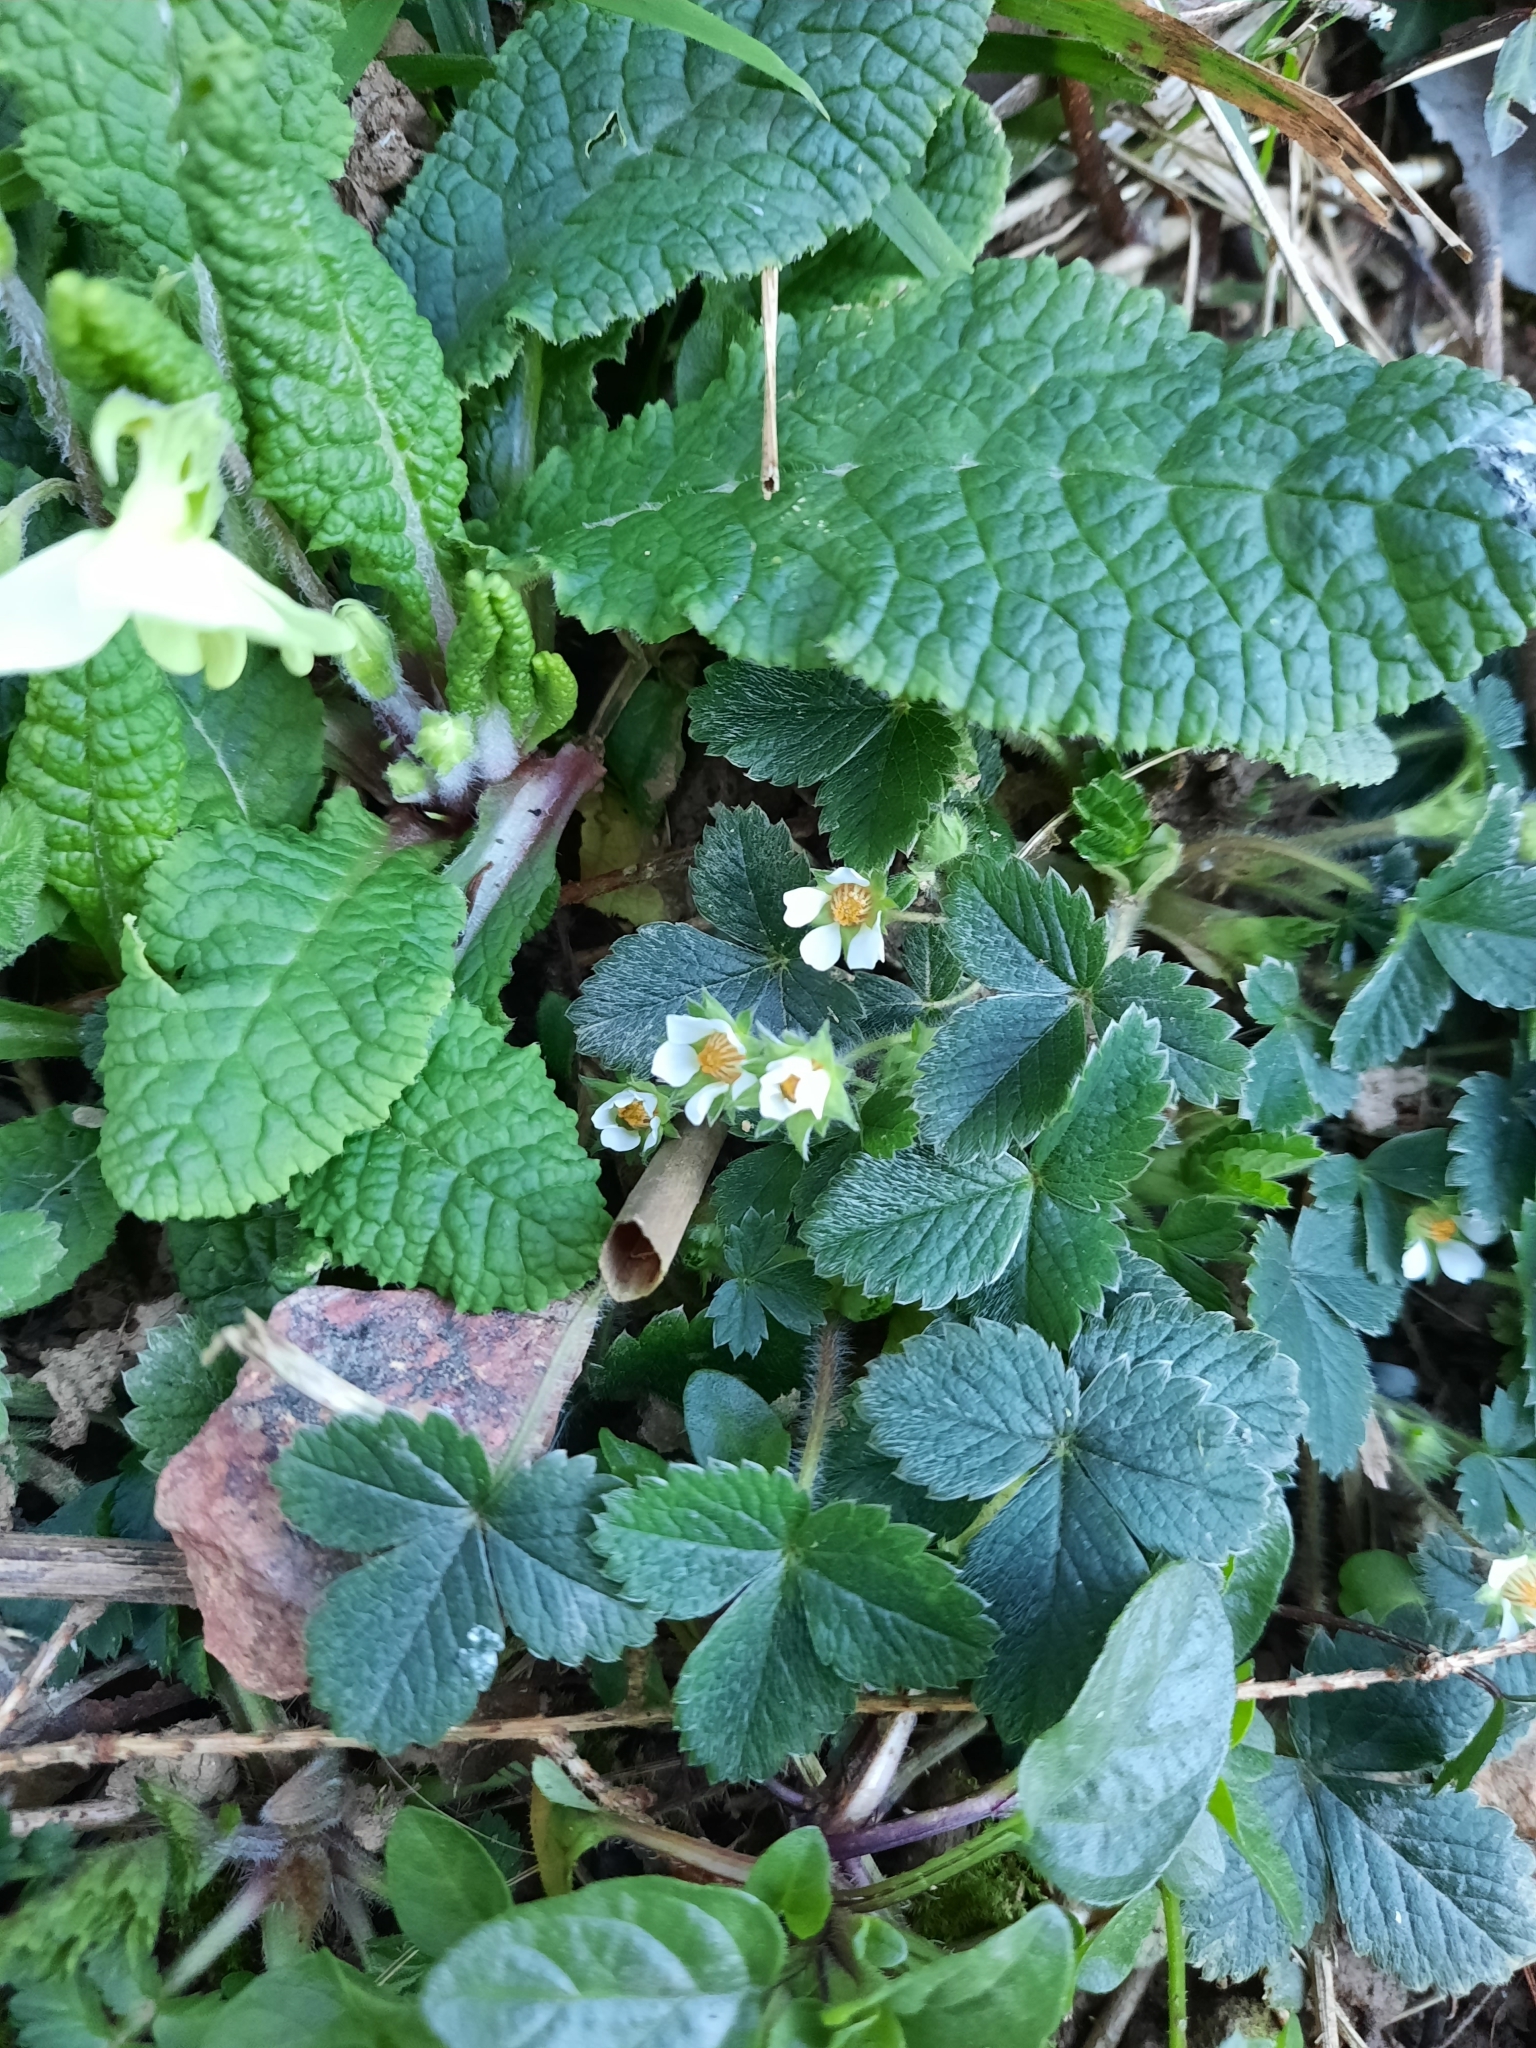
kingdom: Plantae
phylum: Tracheophyta
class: Magnoliopsida
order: Rosales
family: Rosaceae
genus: Potentilla
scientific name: Potentilla sterilis
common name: Barren strawberry
